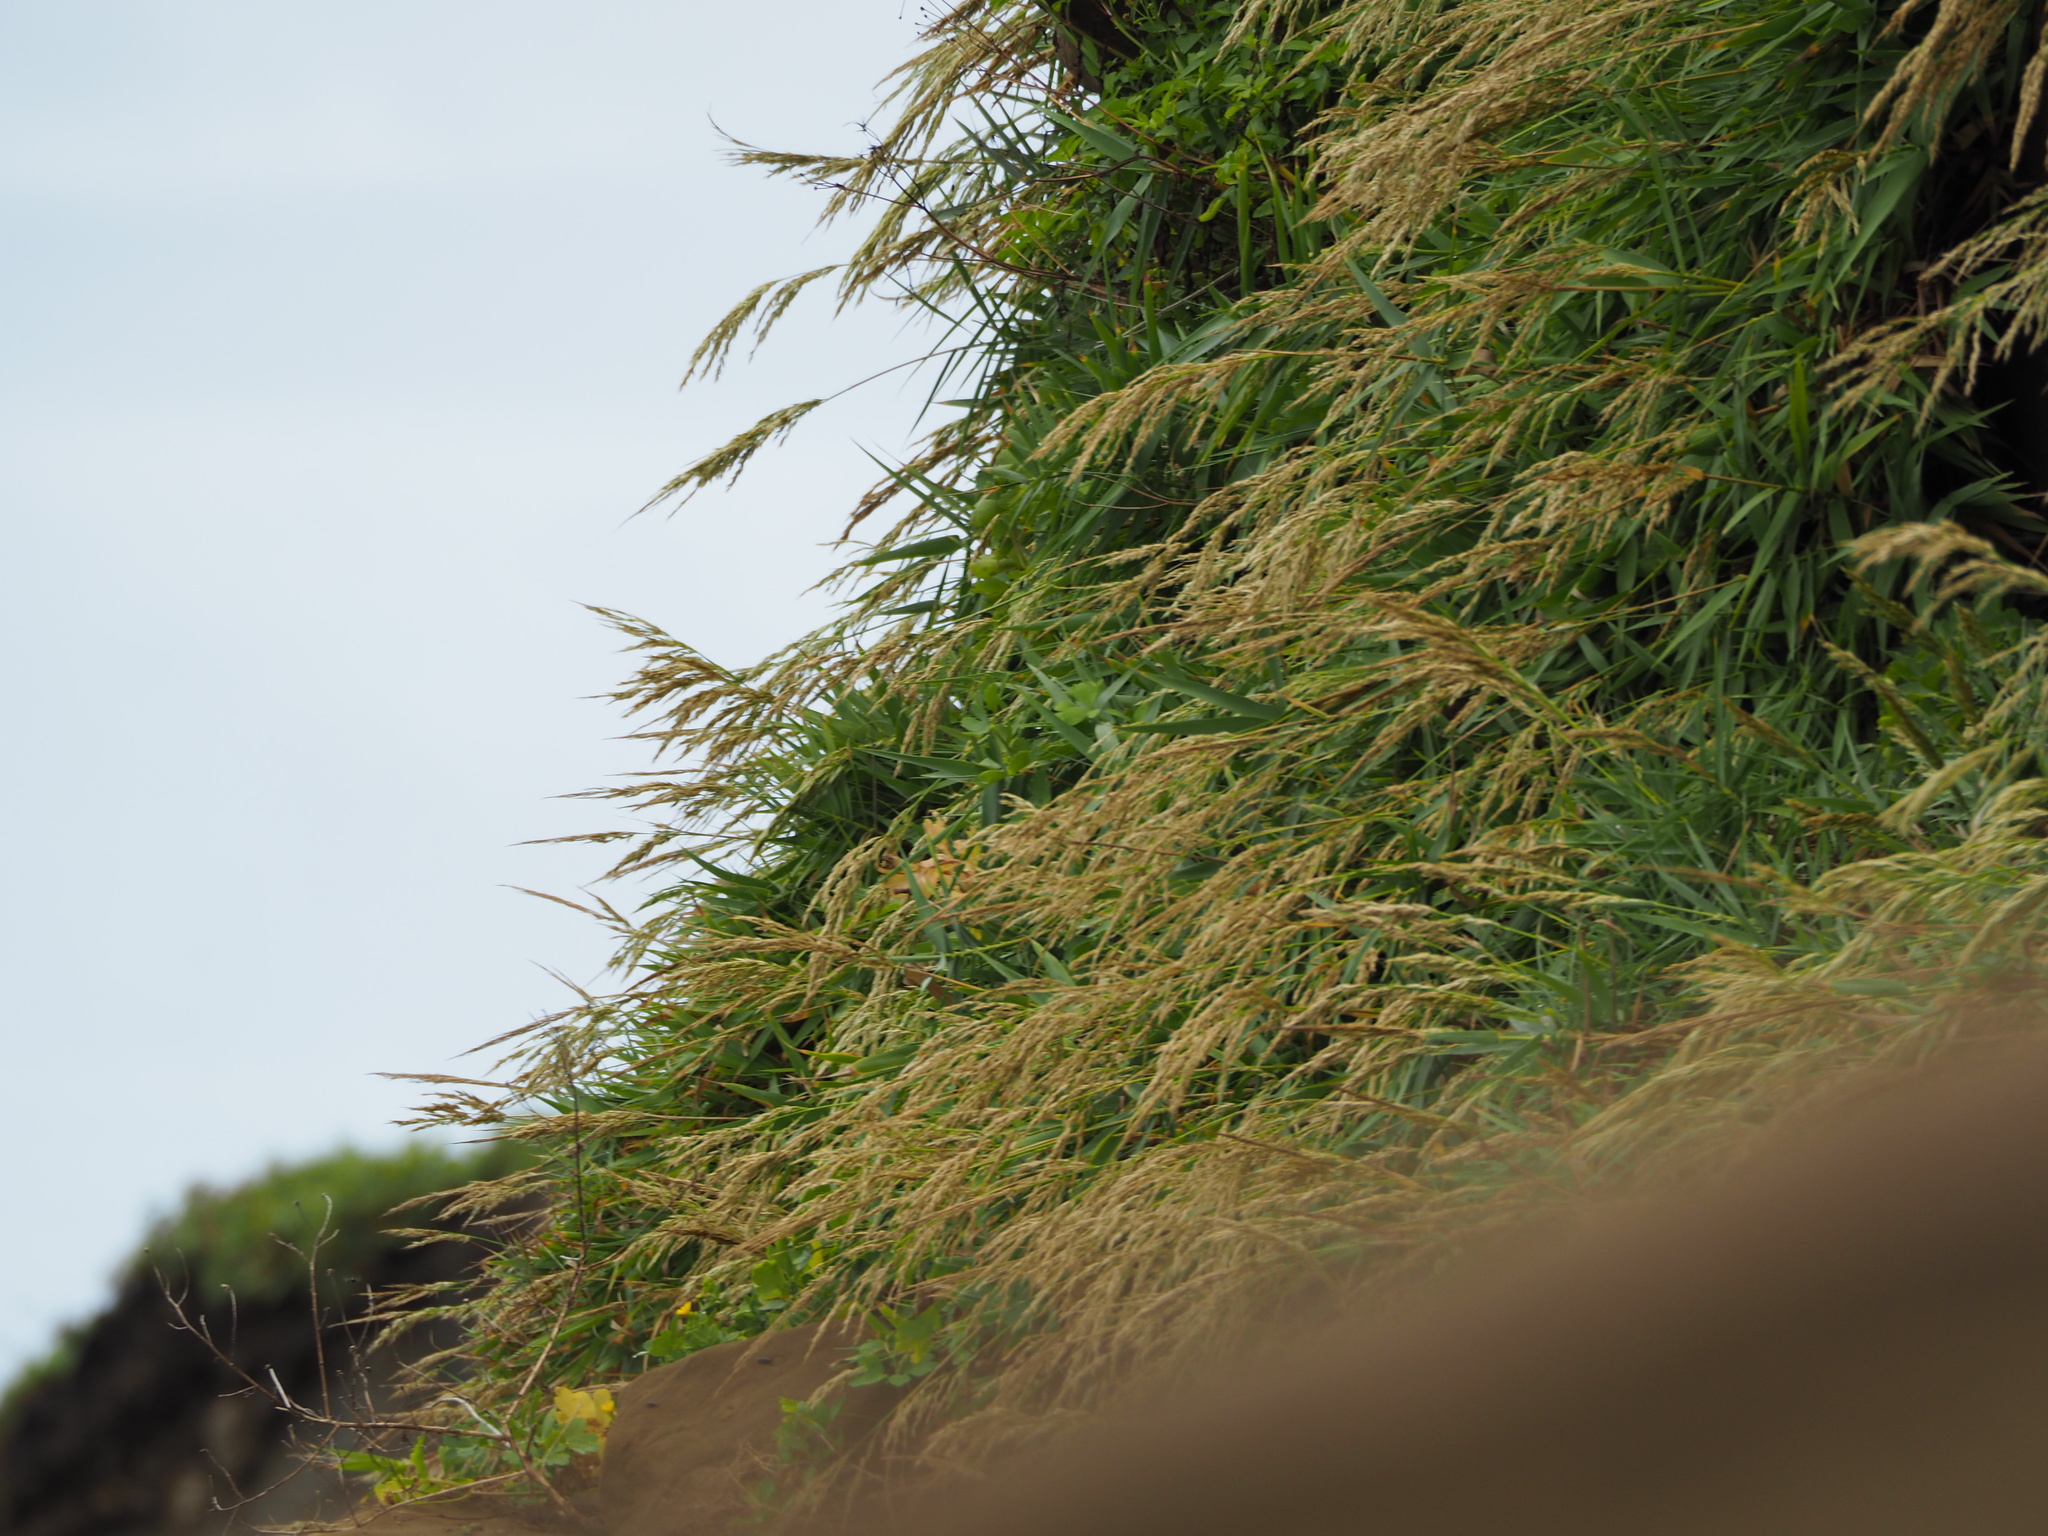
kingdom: Plantae
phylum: Tracheophyta
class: Liliopsida
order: Poales
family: Poaceae
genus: Arundo
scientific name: Arundo formosana
